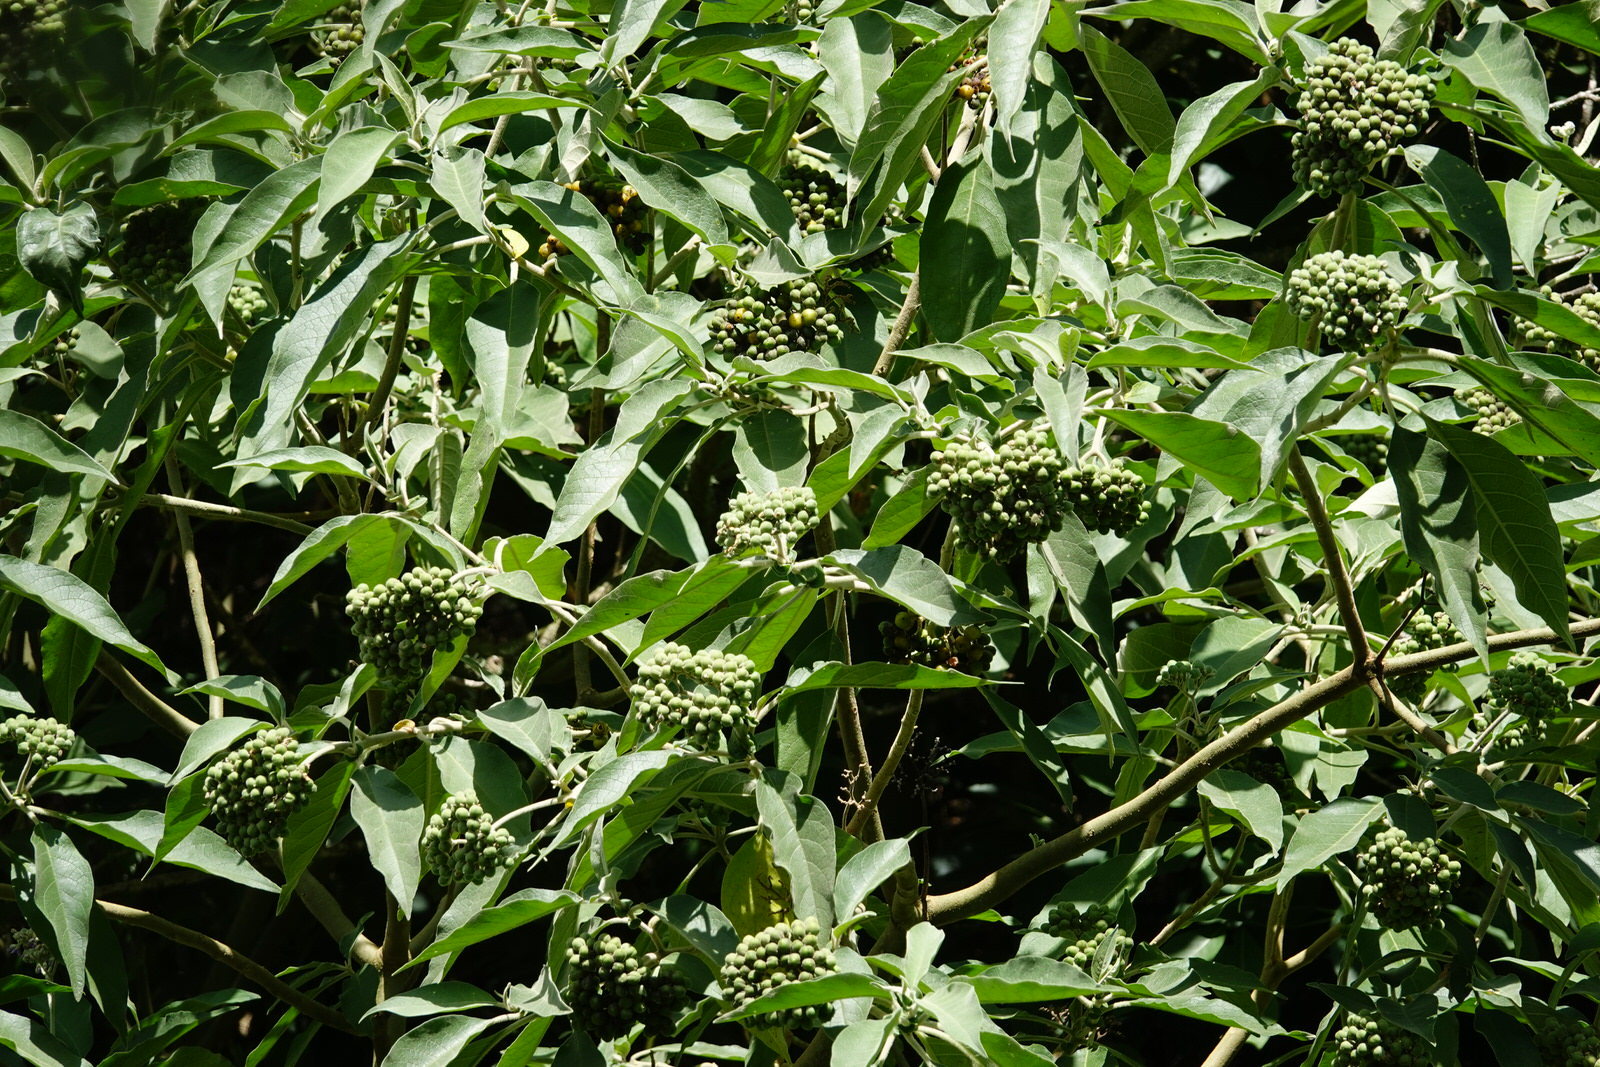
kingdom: Plantae
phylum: Tracheophyta
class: Magnoliopsida
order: Solanales
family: Solanaceae
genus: Solanum
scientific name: Solanum mauritianum
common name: Earleaf nightshade
